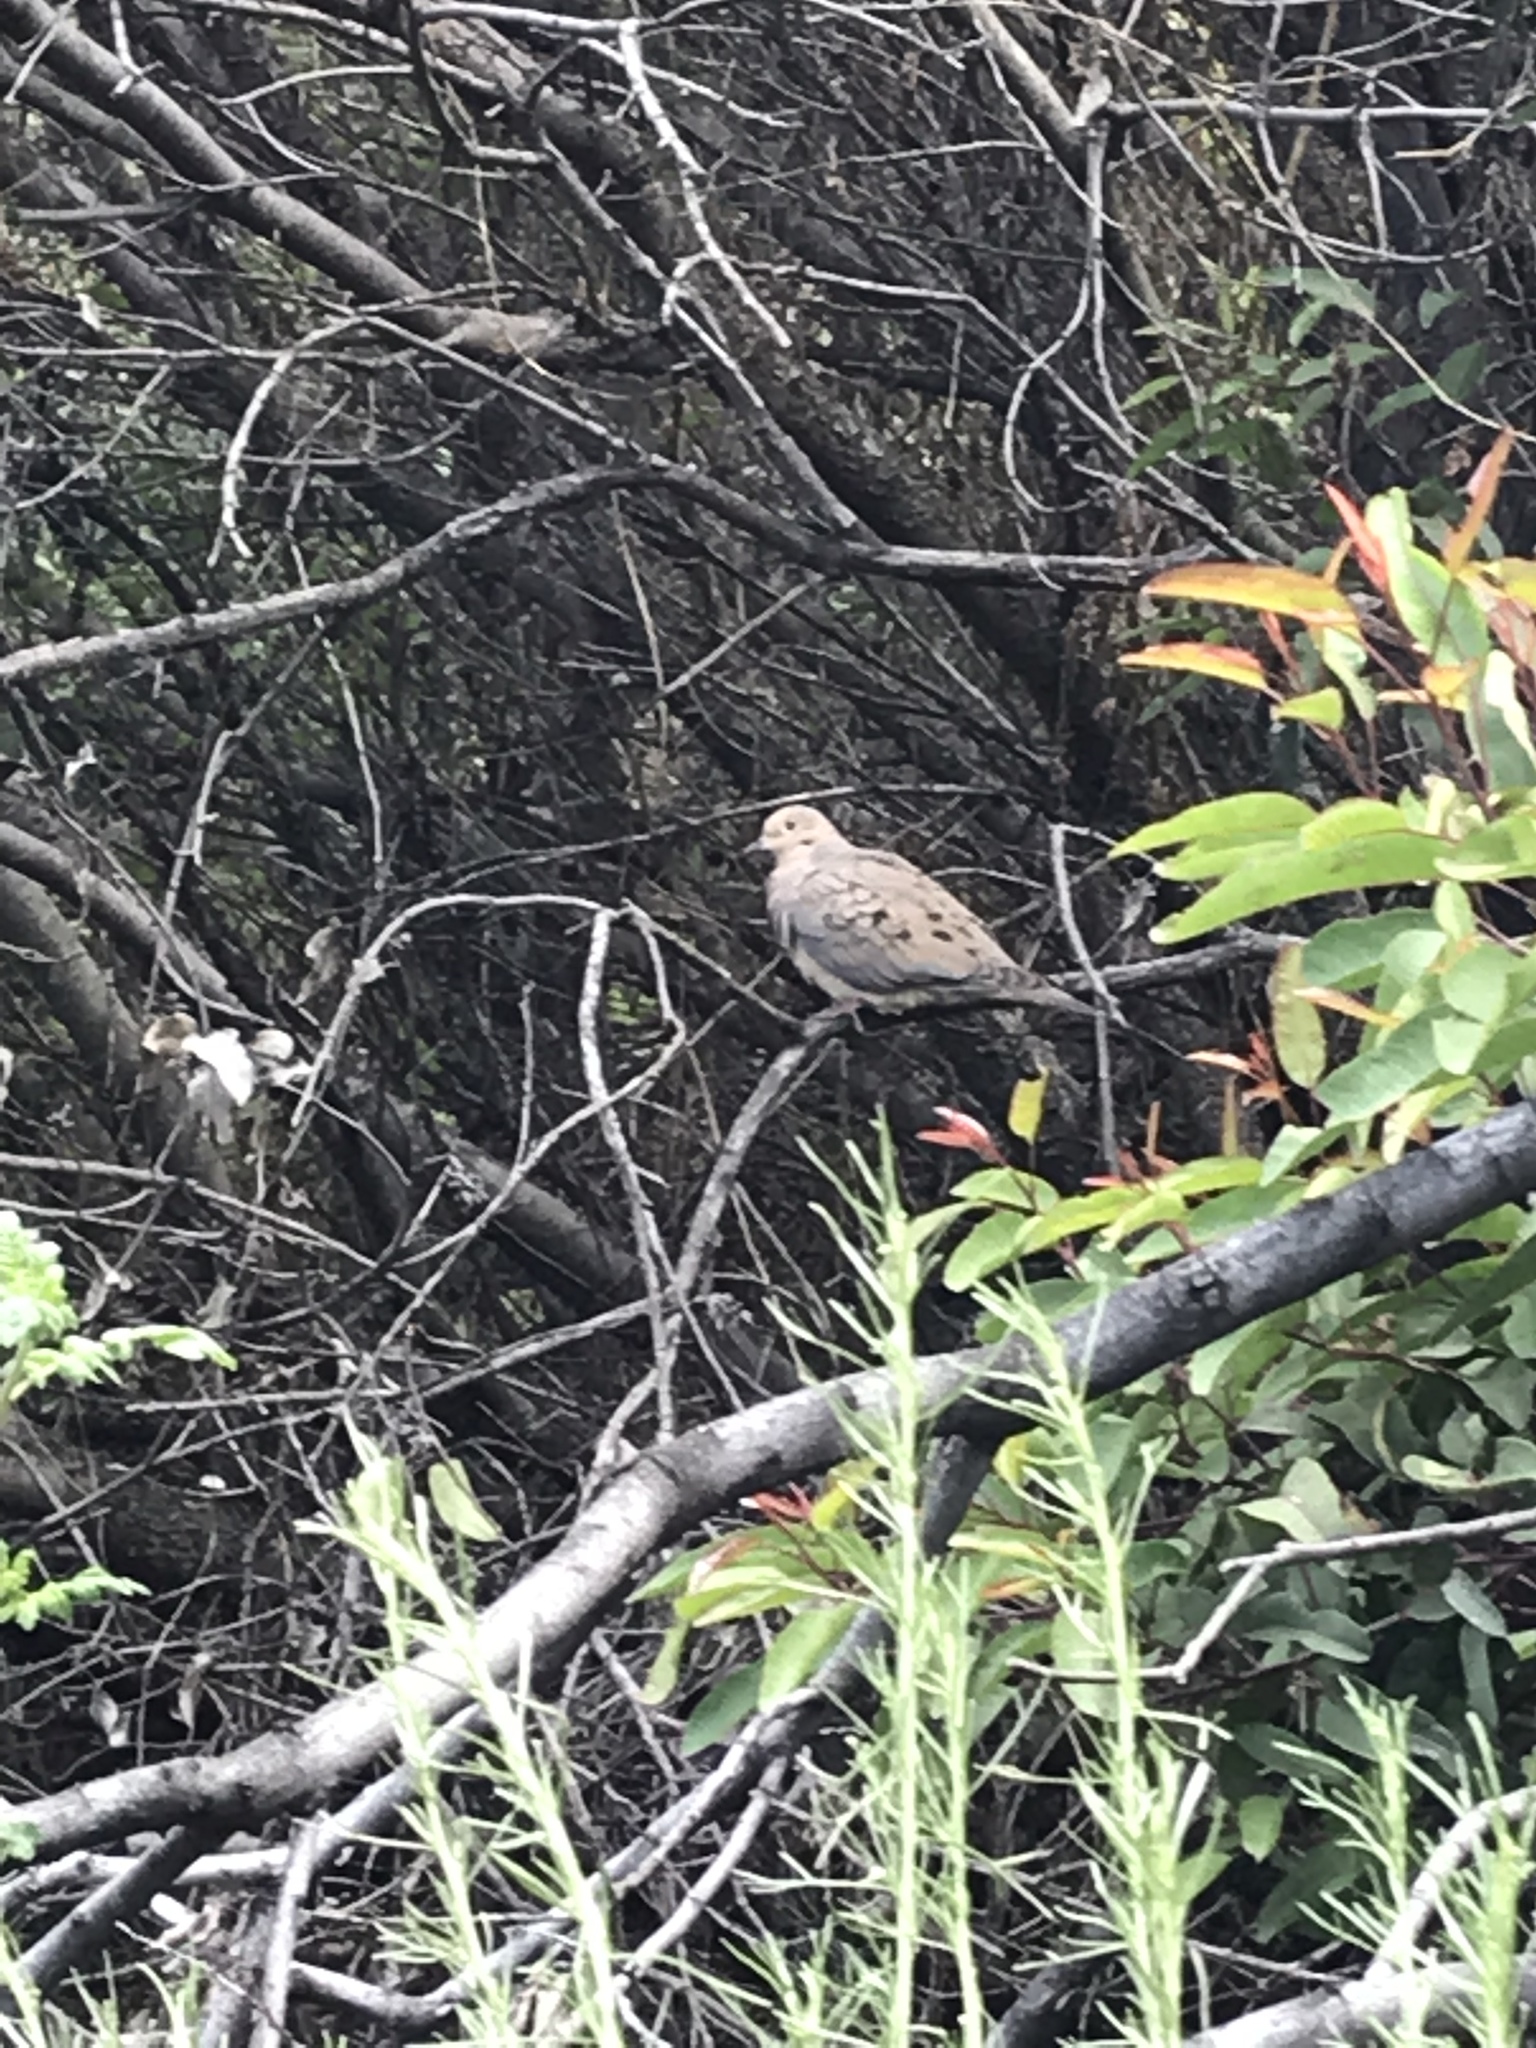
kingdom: Animalia
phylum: Chordata
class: Aves
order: Columbiformes
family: Columbidae
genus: Zenaida
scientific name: Zenaida macroura
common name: Mourning dove
